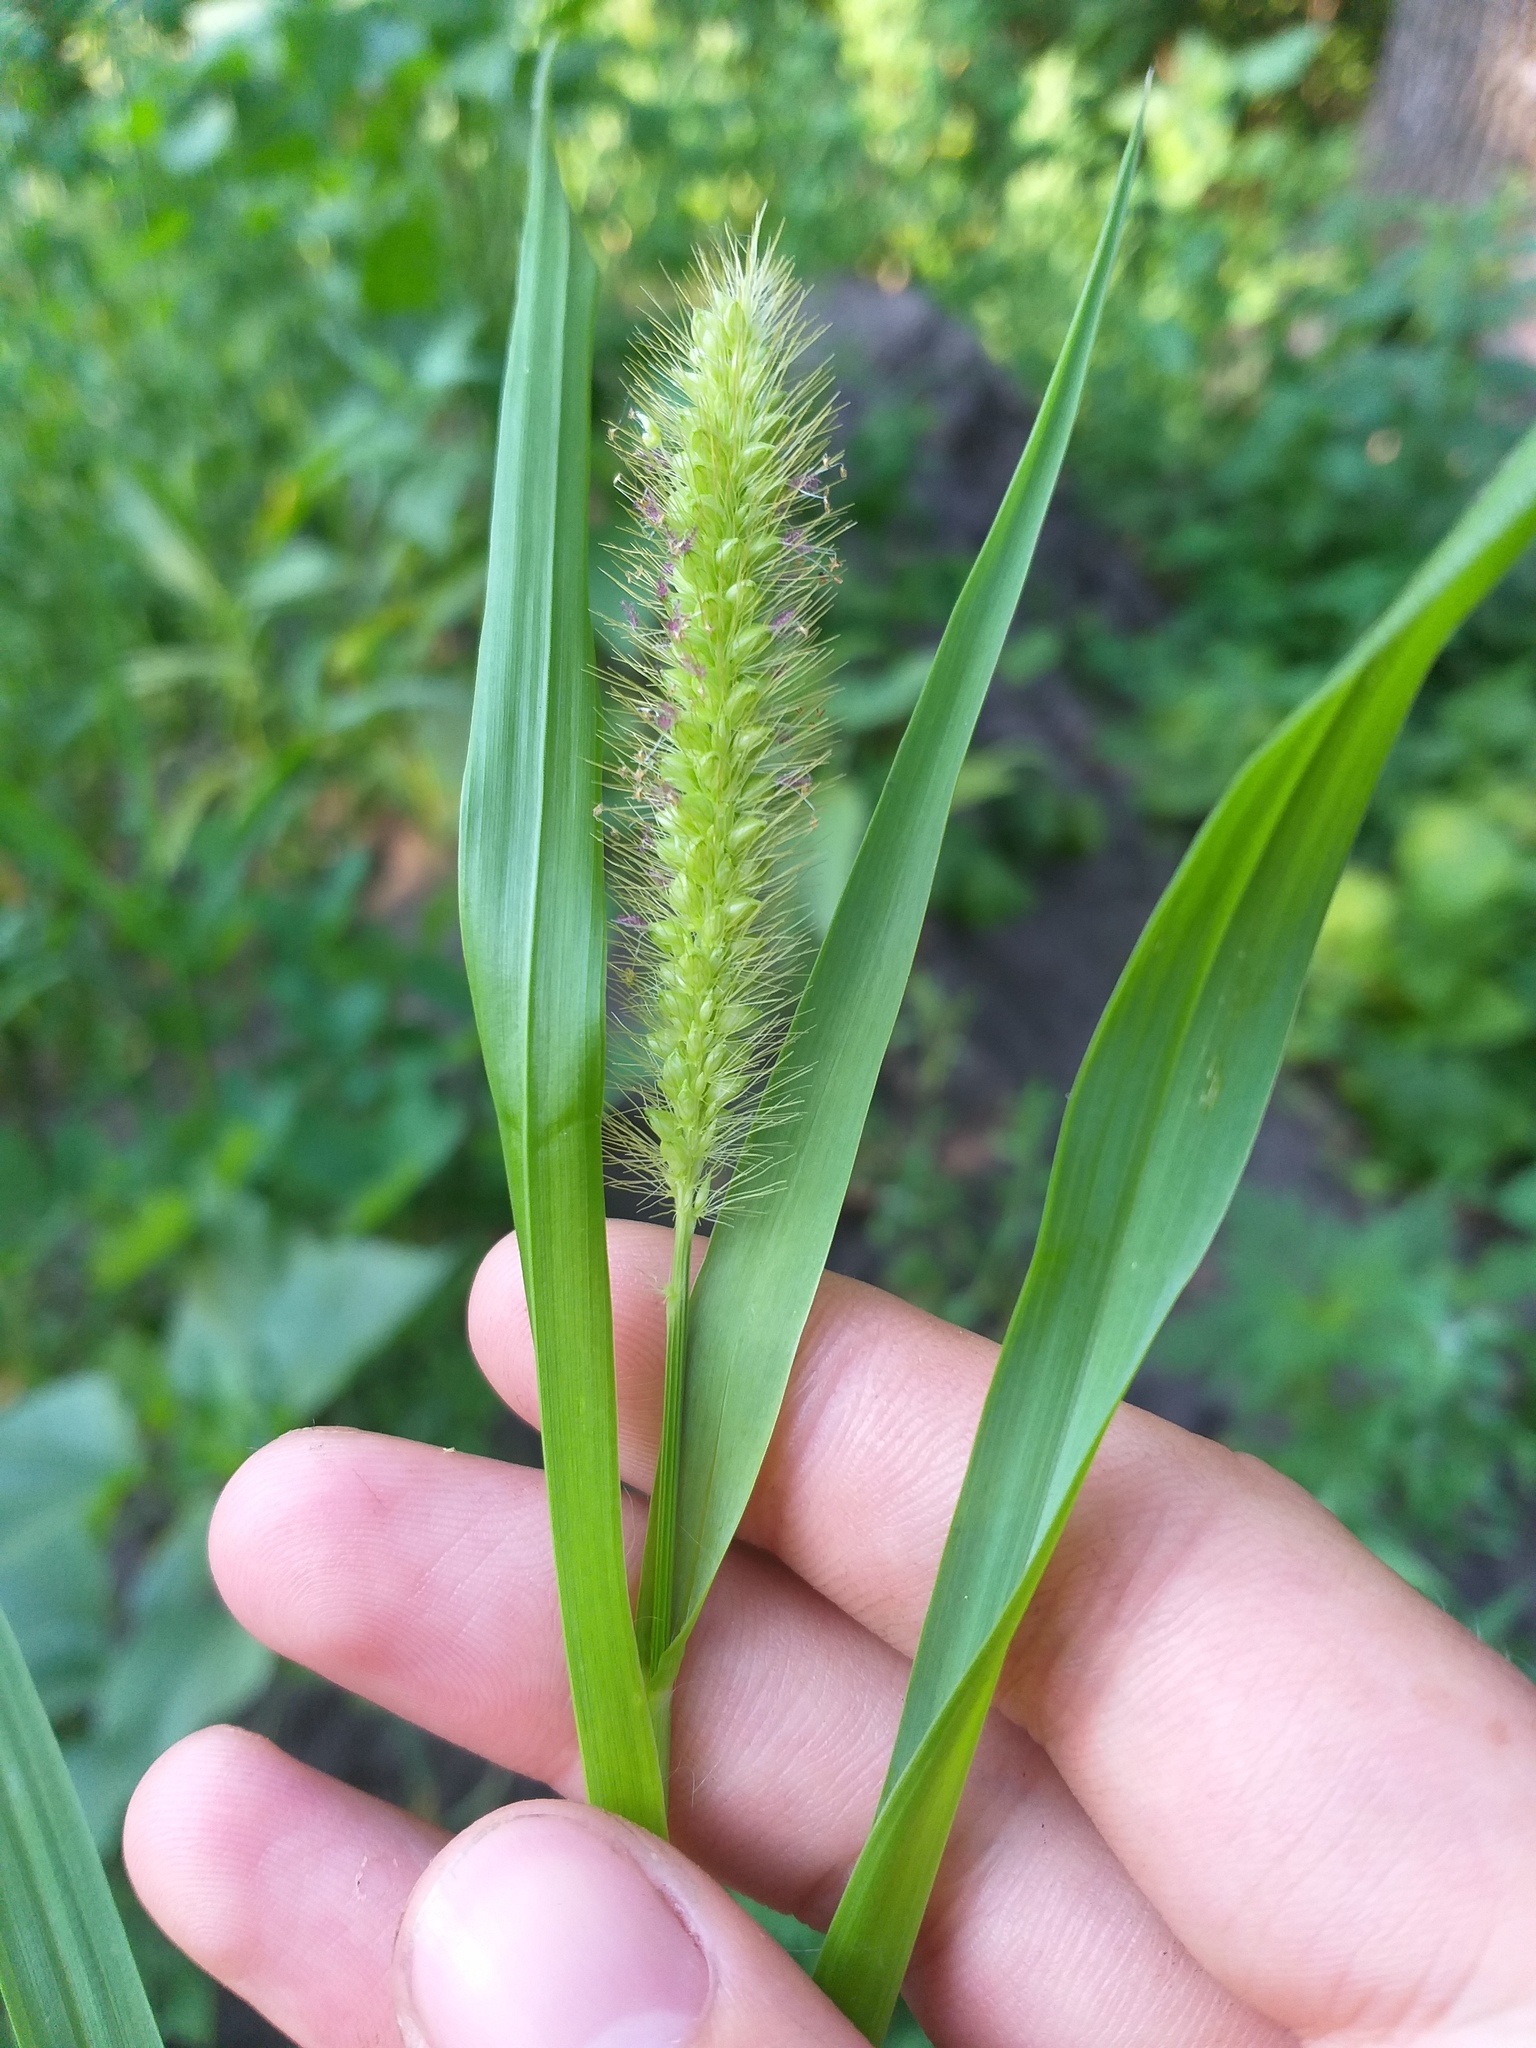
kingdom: Plantae
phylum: Tracheophyta
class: Liliopsida
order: Poales
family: Poaceae
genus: Setaria
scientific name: Setaria pumila
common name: Yellow bristle-grass
